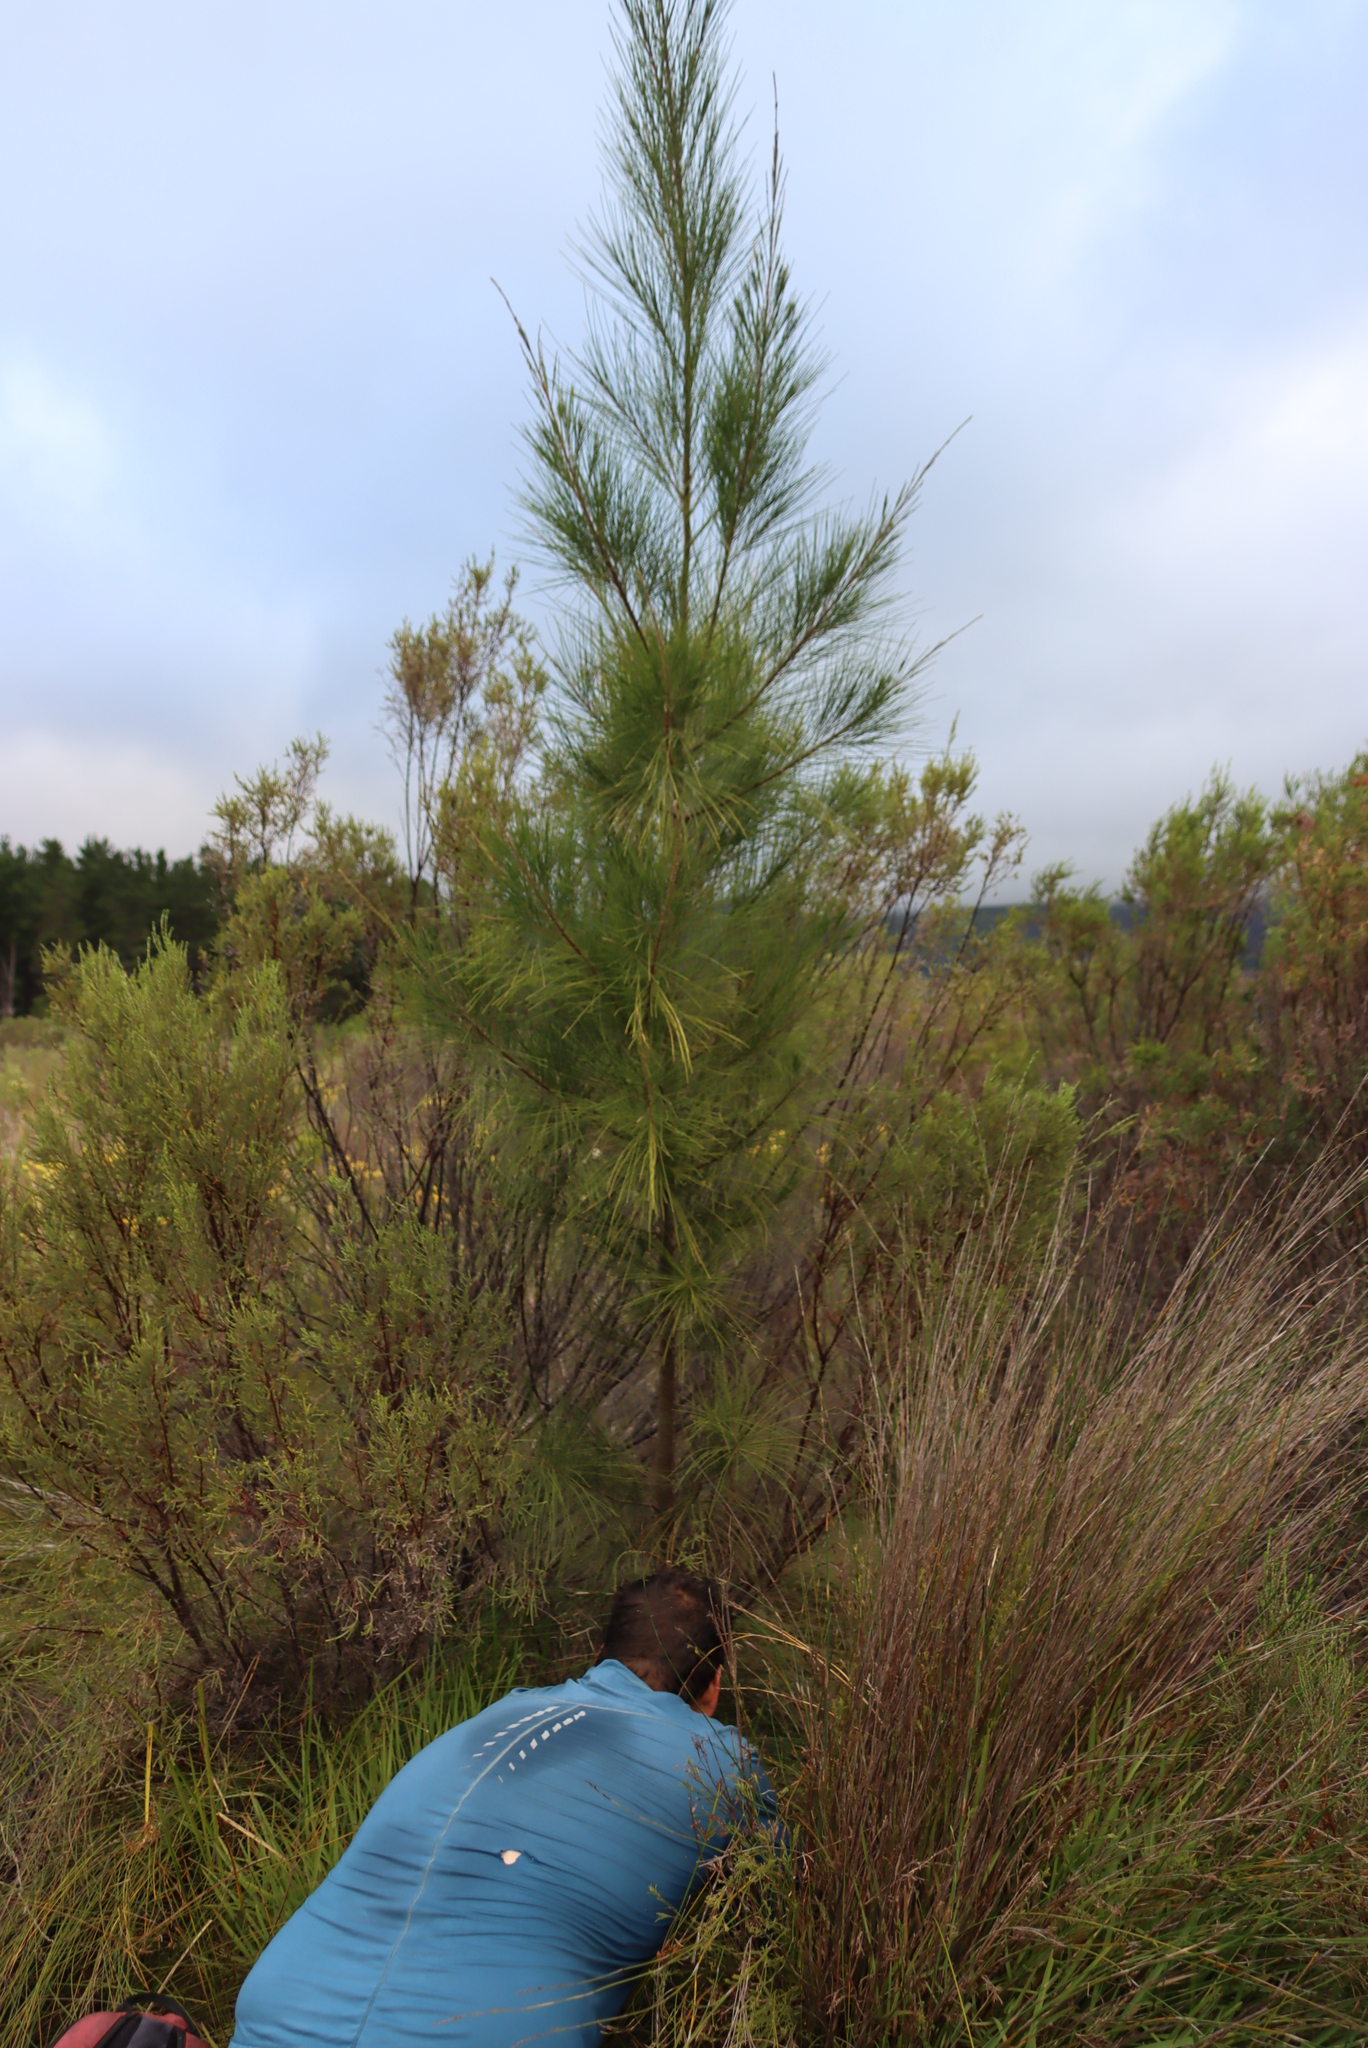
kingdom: Plantae
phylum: Tracheophyta
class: Magnoliopsida
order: Fagales
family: Casuarinaceae
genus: Casuarina
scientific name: Casuarina cunninghamiana
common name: River sheoak
